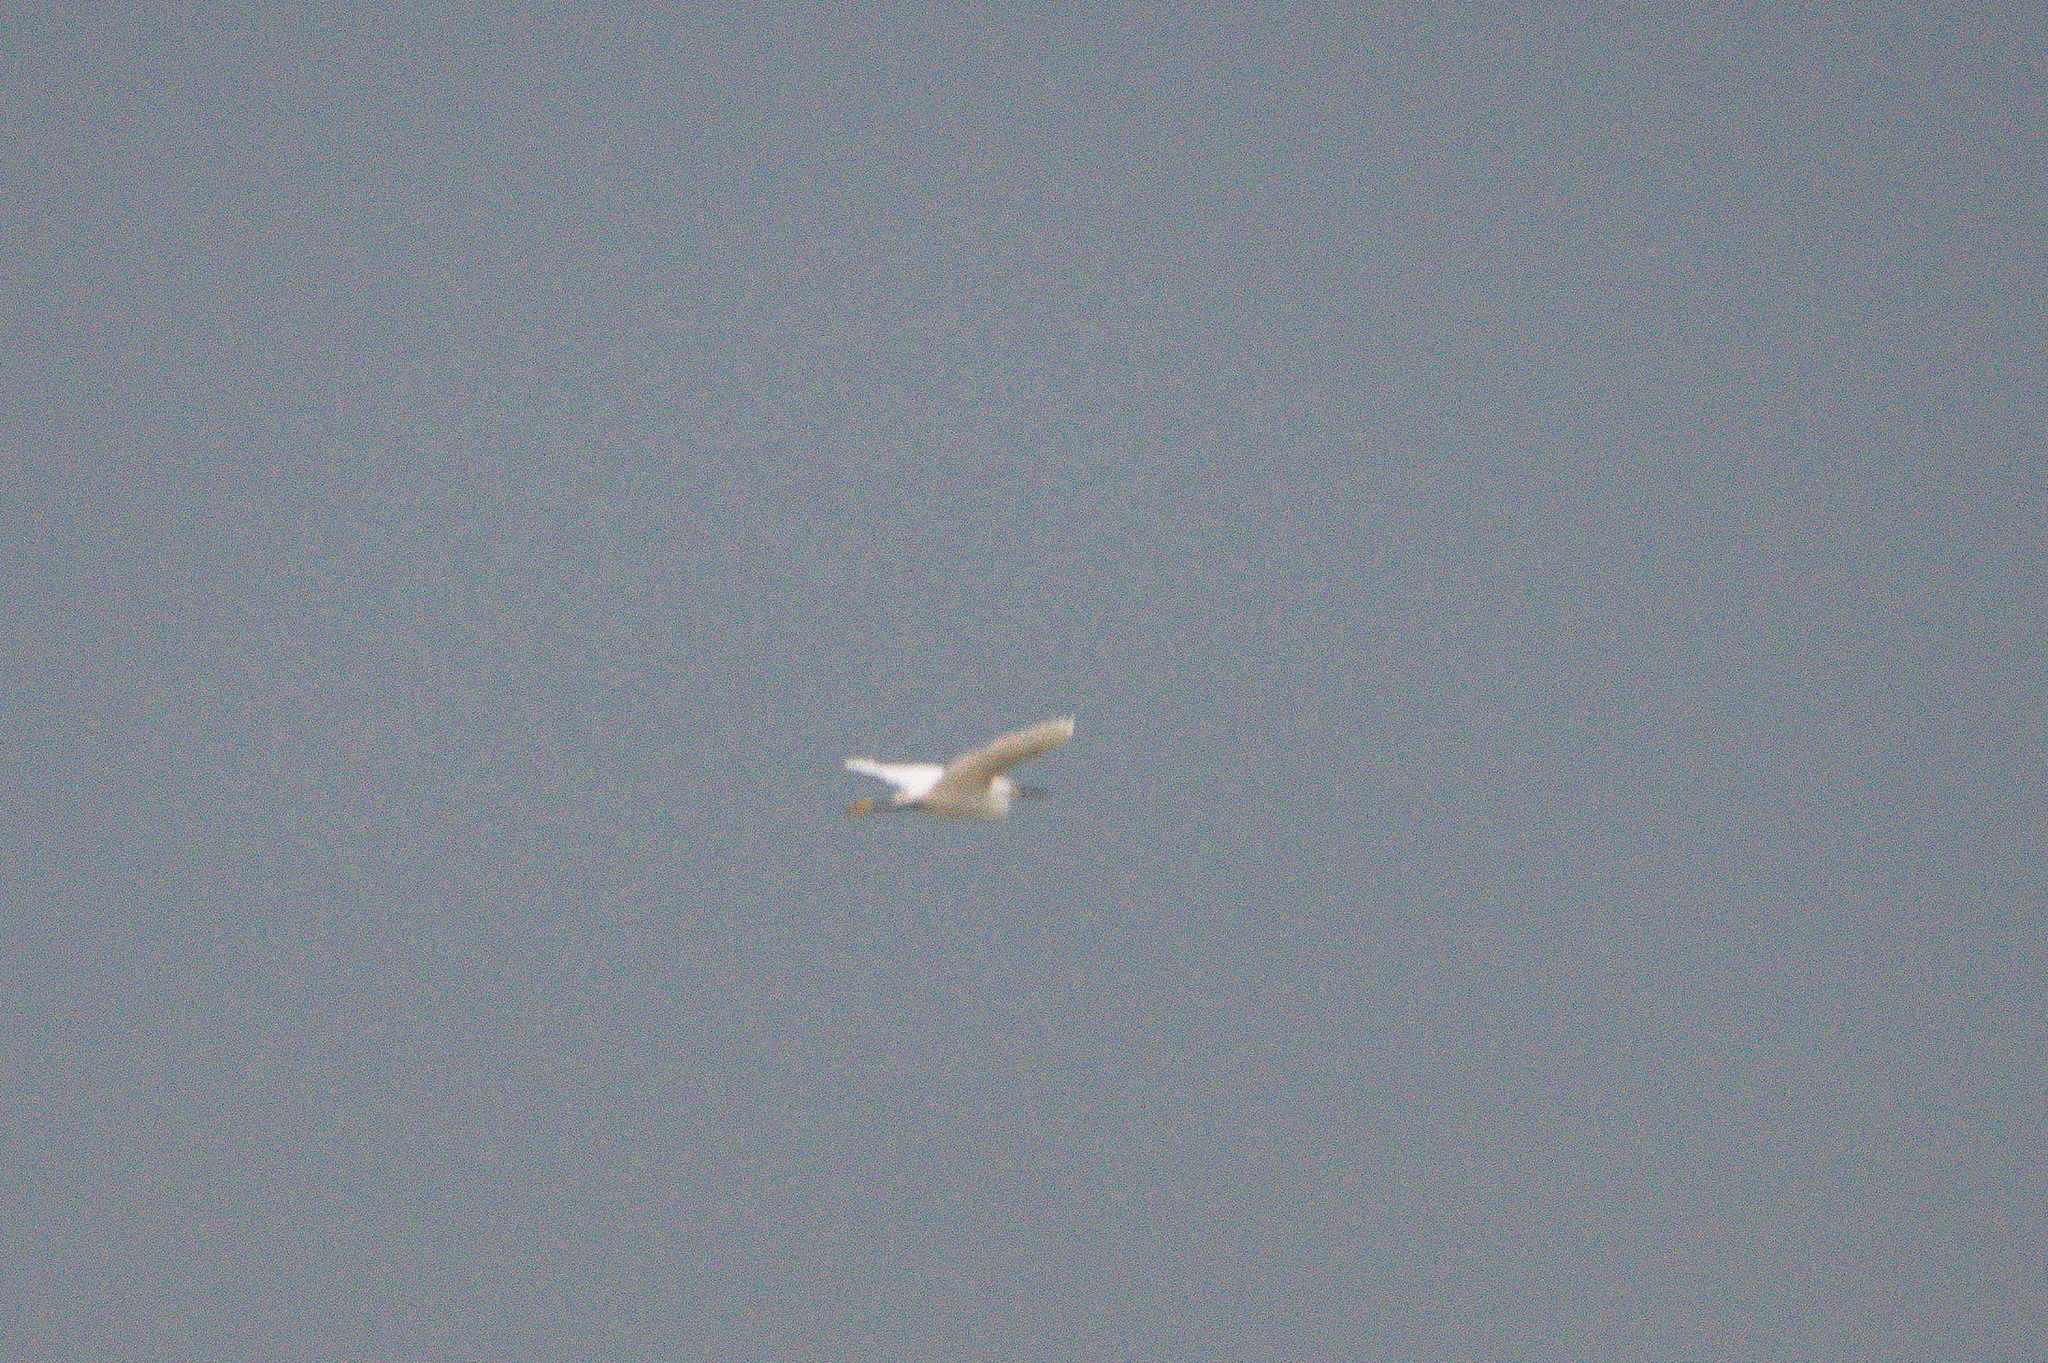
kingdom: Animalia
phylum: Chordata
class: Aves
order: Pelecaniformes
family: Ardeidae
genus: Egretta
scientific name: Egretta thula
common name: Snowy egret
